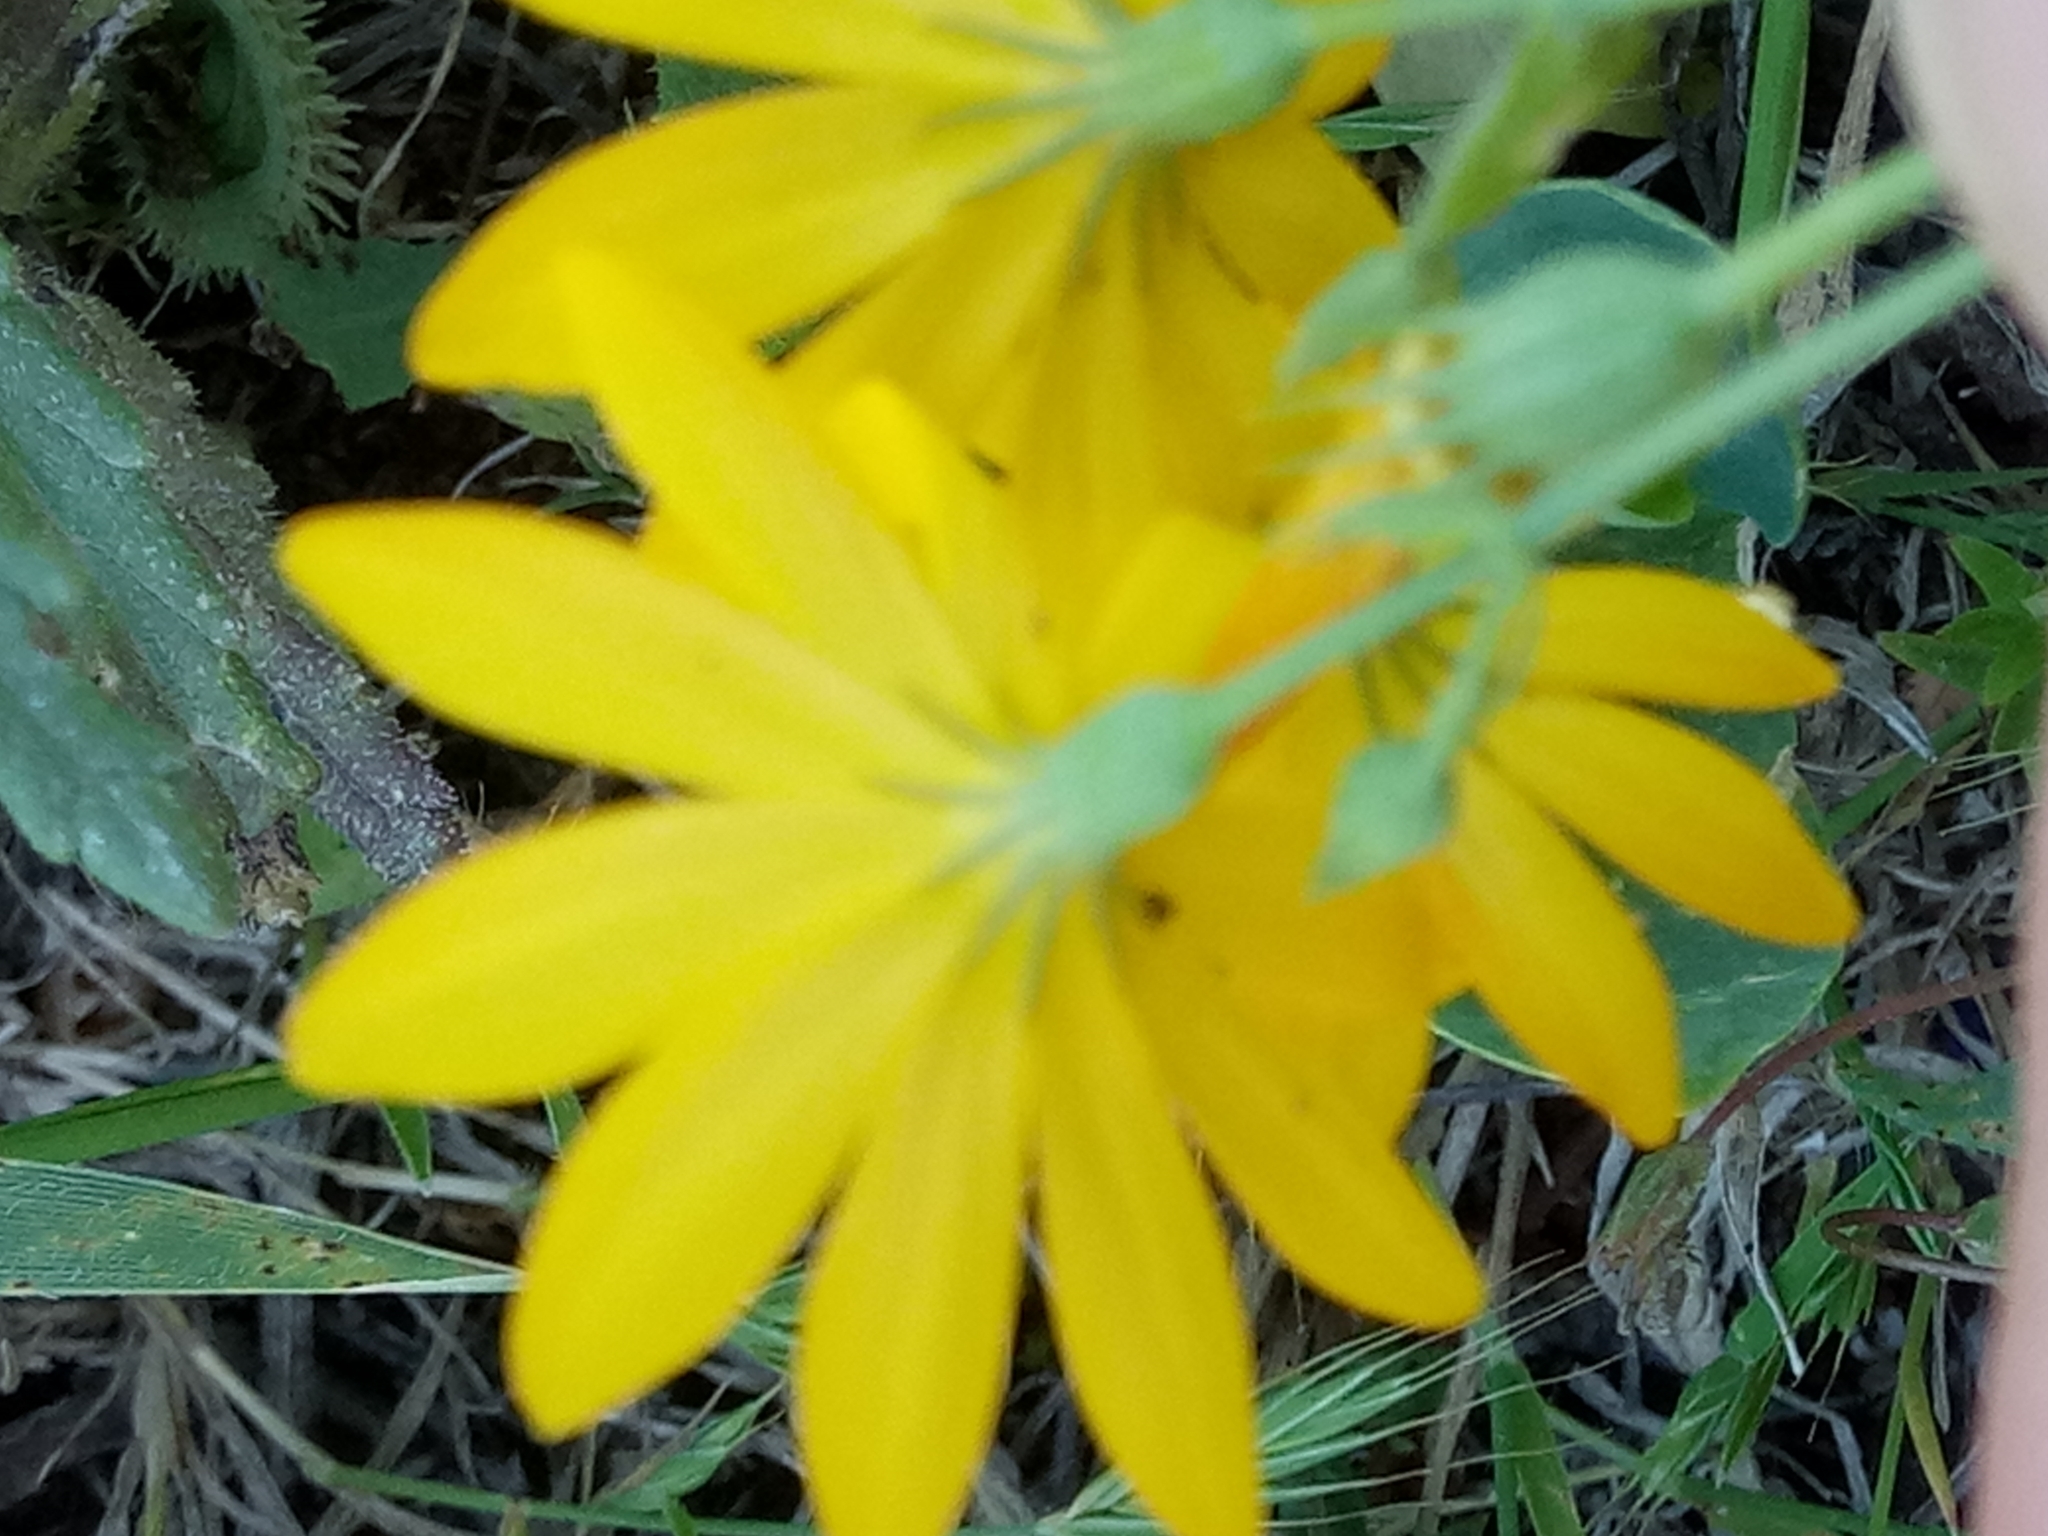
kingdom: Plantae
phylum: Tracheophyta
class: Magnoliopsida
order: Gentianales
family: Gentianaceae
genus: Blackstonia
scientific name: Blackstonia grandiflora
